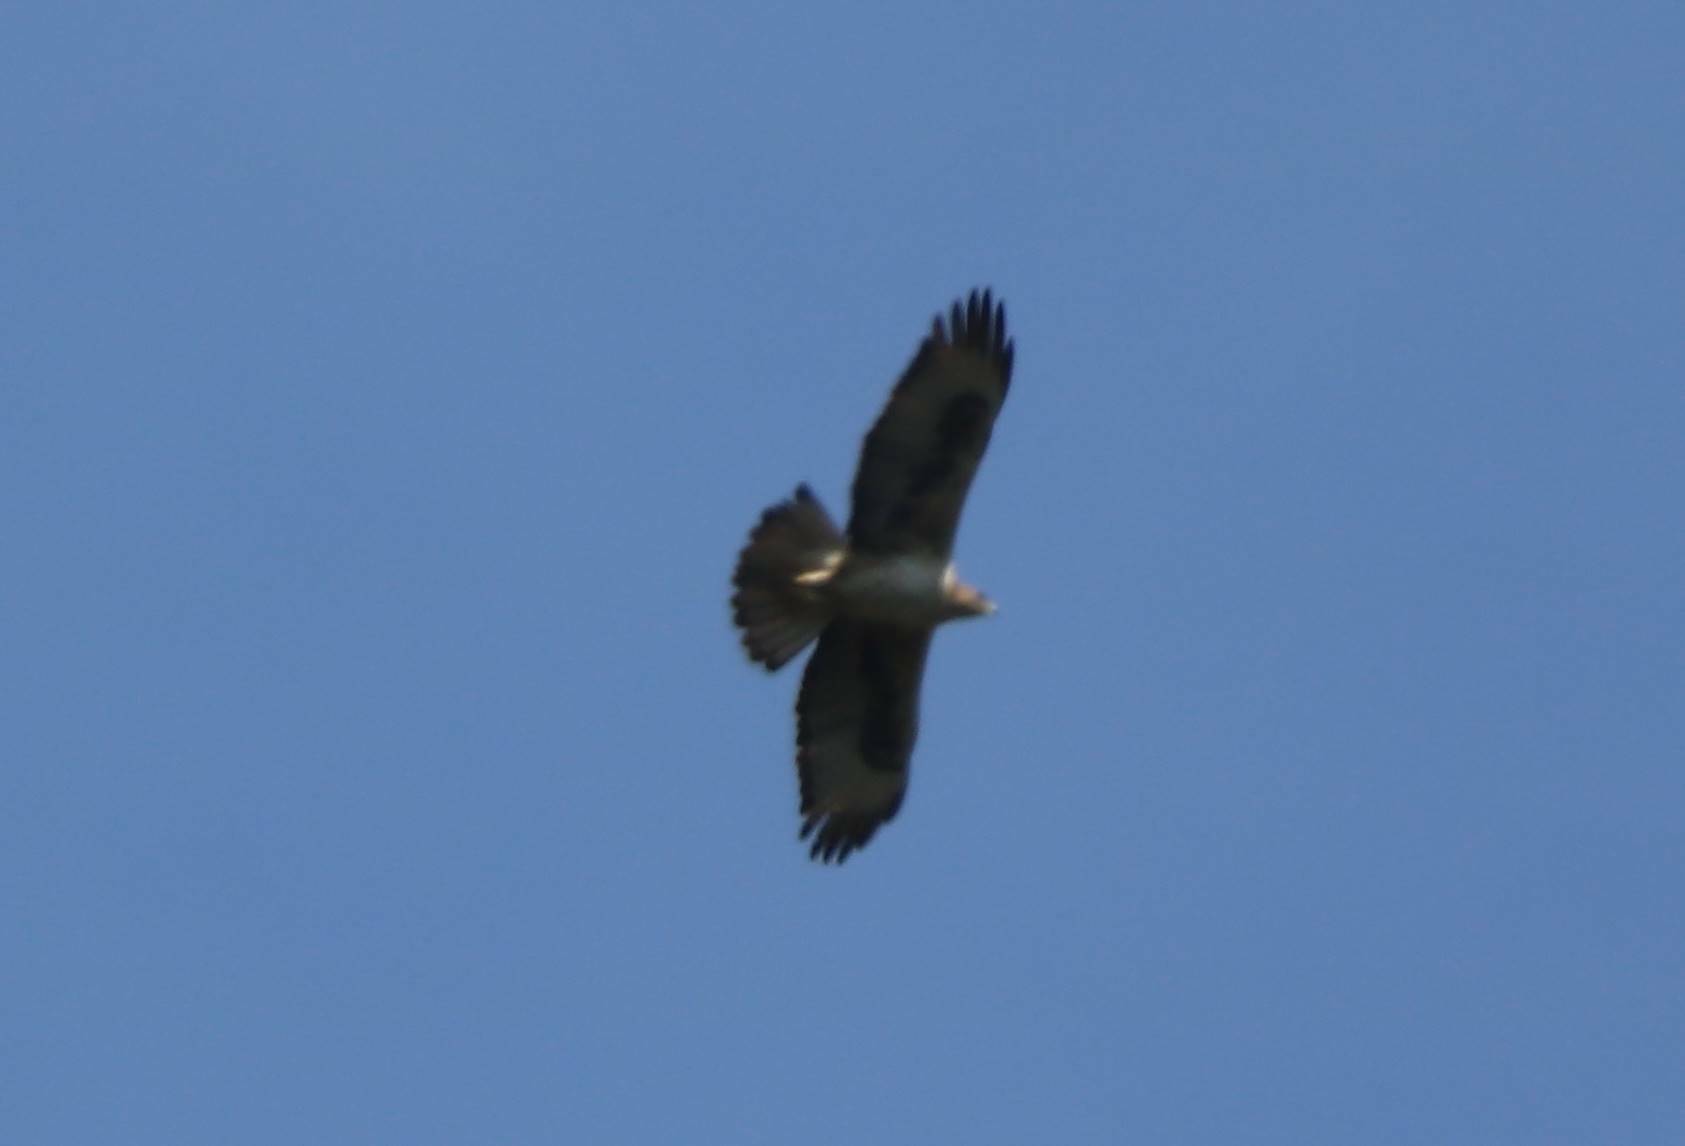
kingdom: Animalia
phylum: Chordata
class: Aves
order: Accipitriformes
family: Accipitridae
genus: Aquila
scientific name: Aquila fasciata
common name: Bonelli's eagle
